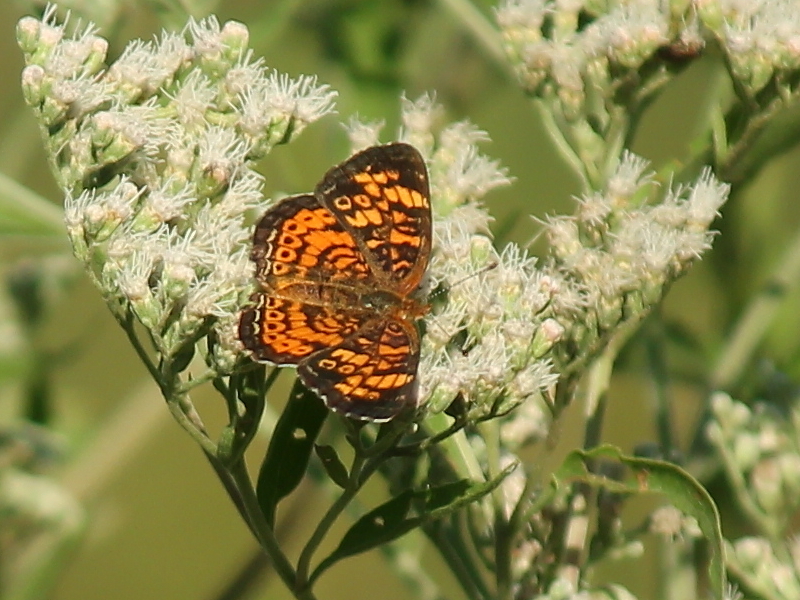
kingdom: Animalia
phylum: Arthropoda
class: Insecta
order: Lepidoptera
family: Nymphalidae
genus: Phyciodes
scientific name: Phyciodes tharos
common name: Pearl crescent
